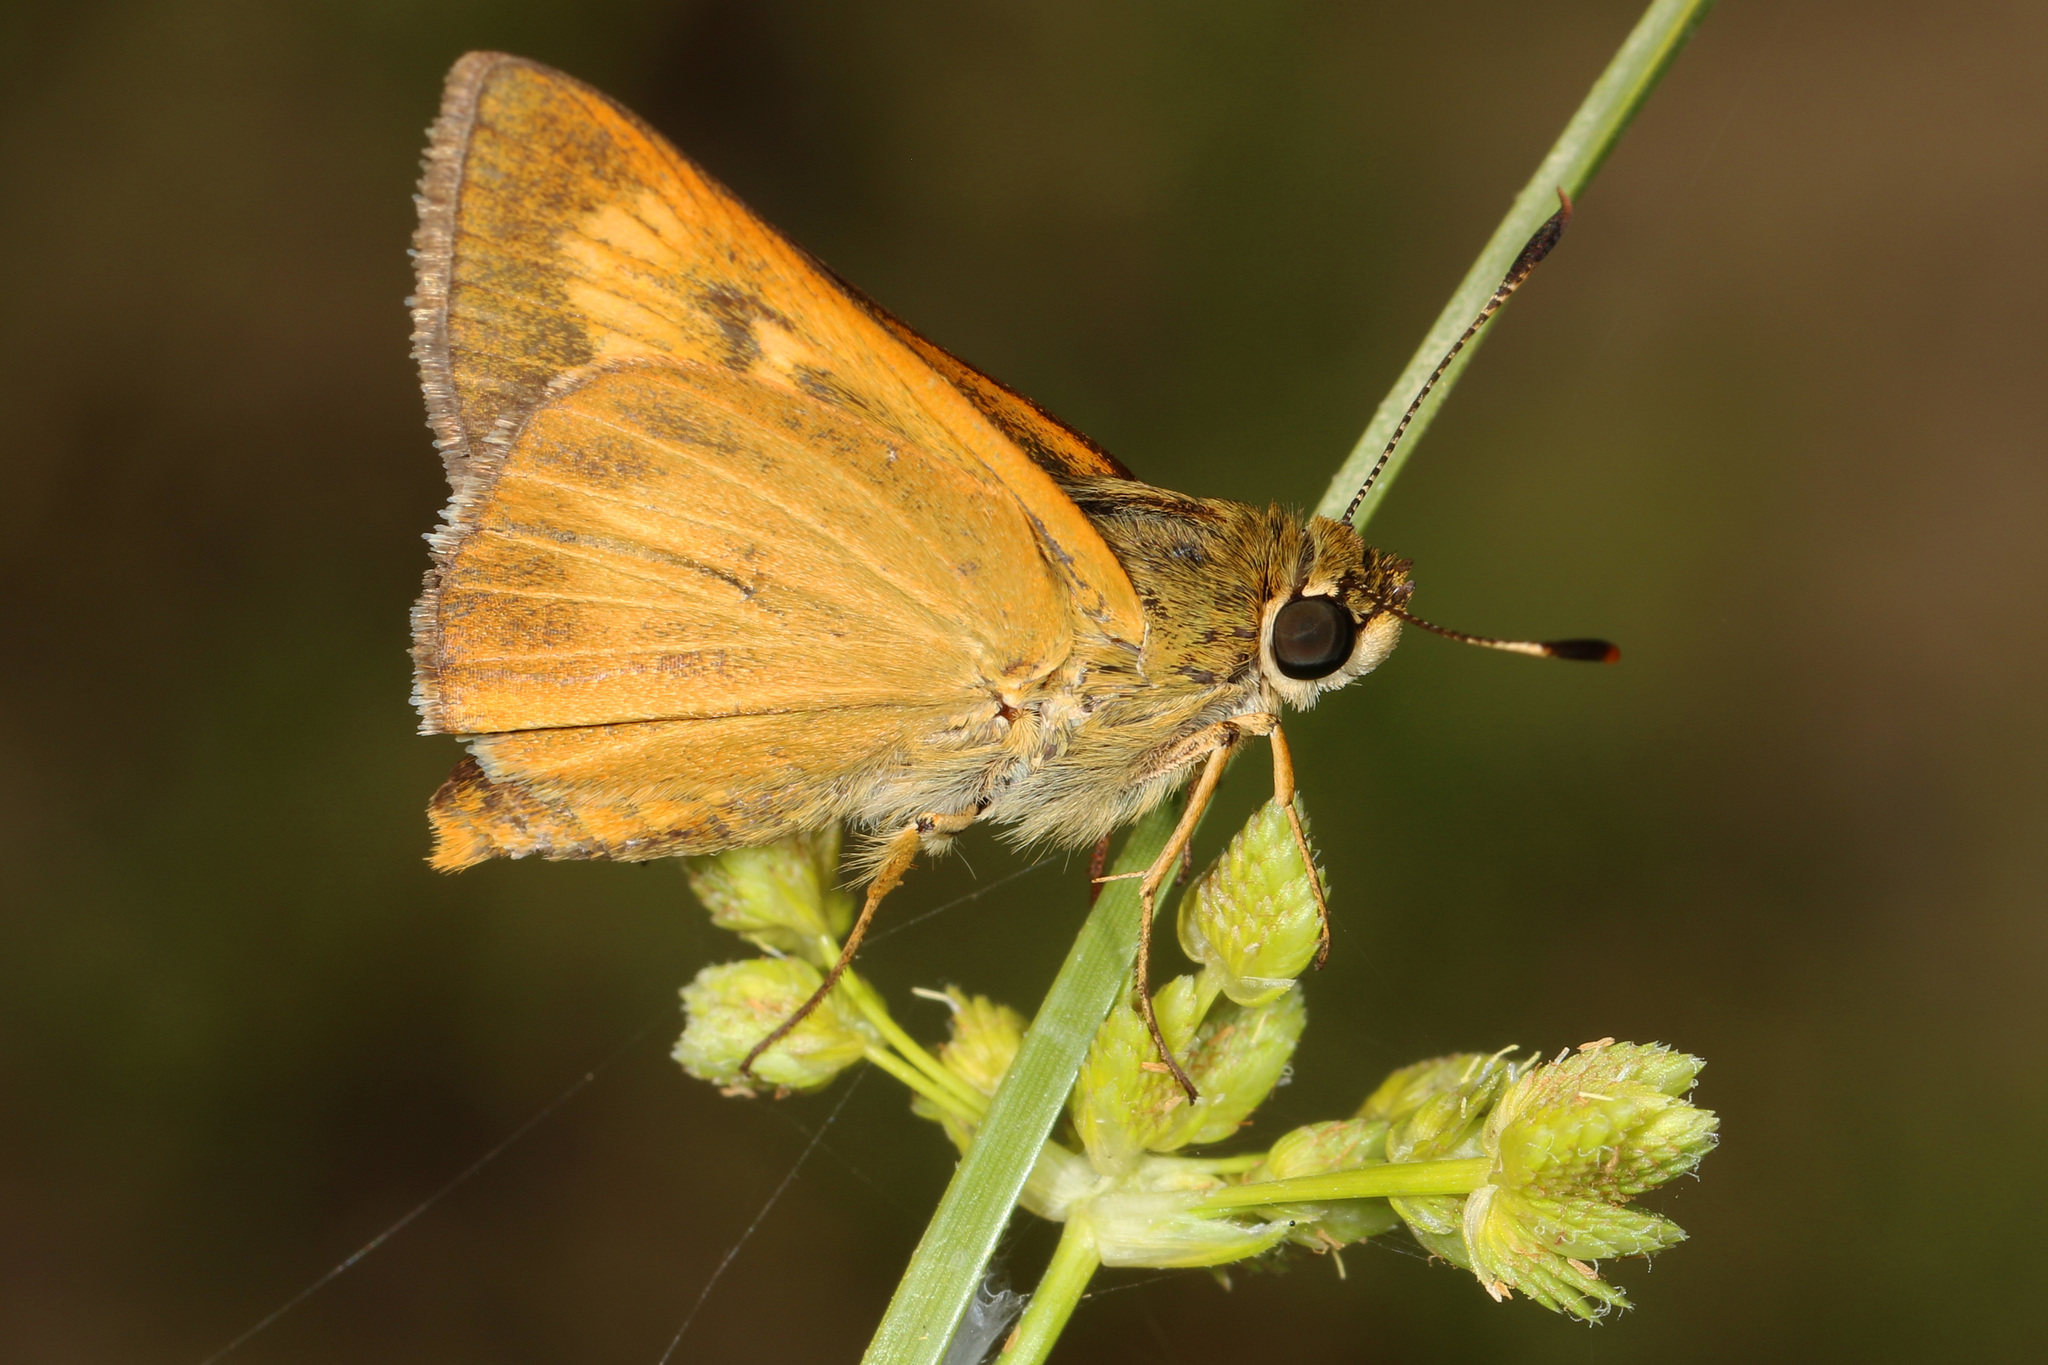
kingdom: Animalia
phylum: Arthropoda
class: Insecta
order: Lepidoptera
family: Hesperiidae
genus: Problema
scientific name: Problema byssus
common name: Byssus skipper
